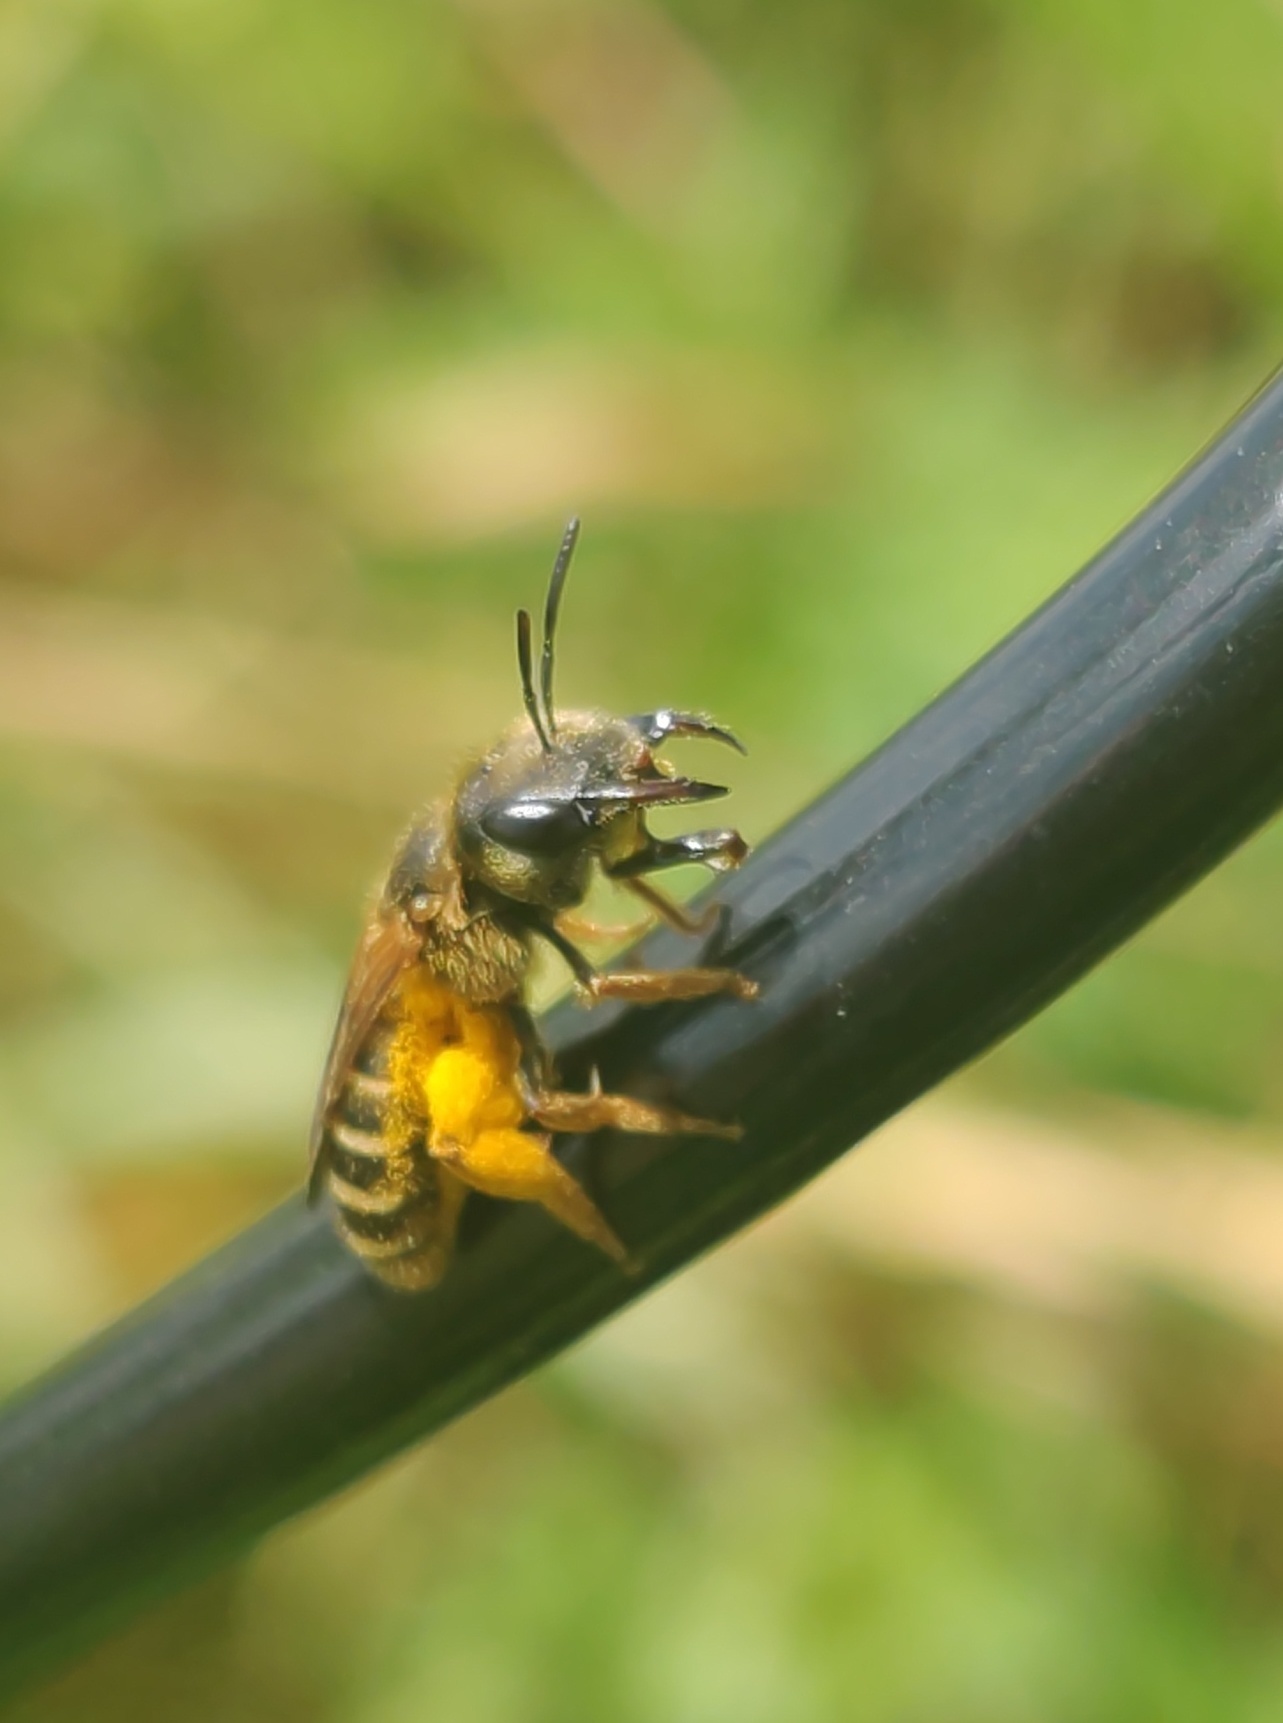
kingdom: Animalia
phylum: Arthropoda
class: Insecta
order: Hymenoptera
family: Halictidae
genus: Halictus
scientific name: Halictus poeyi
